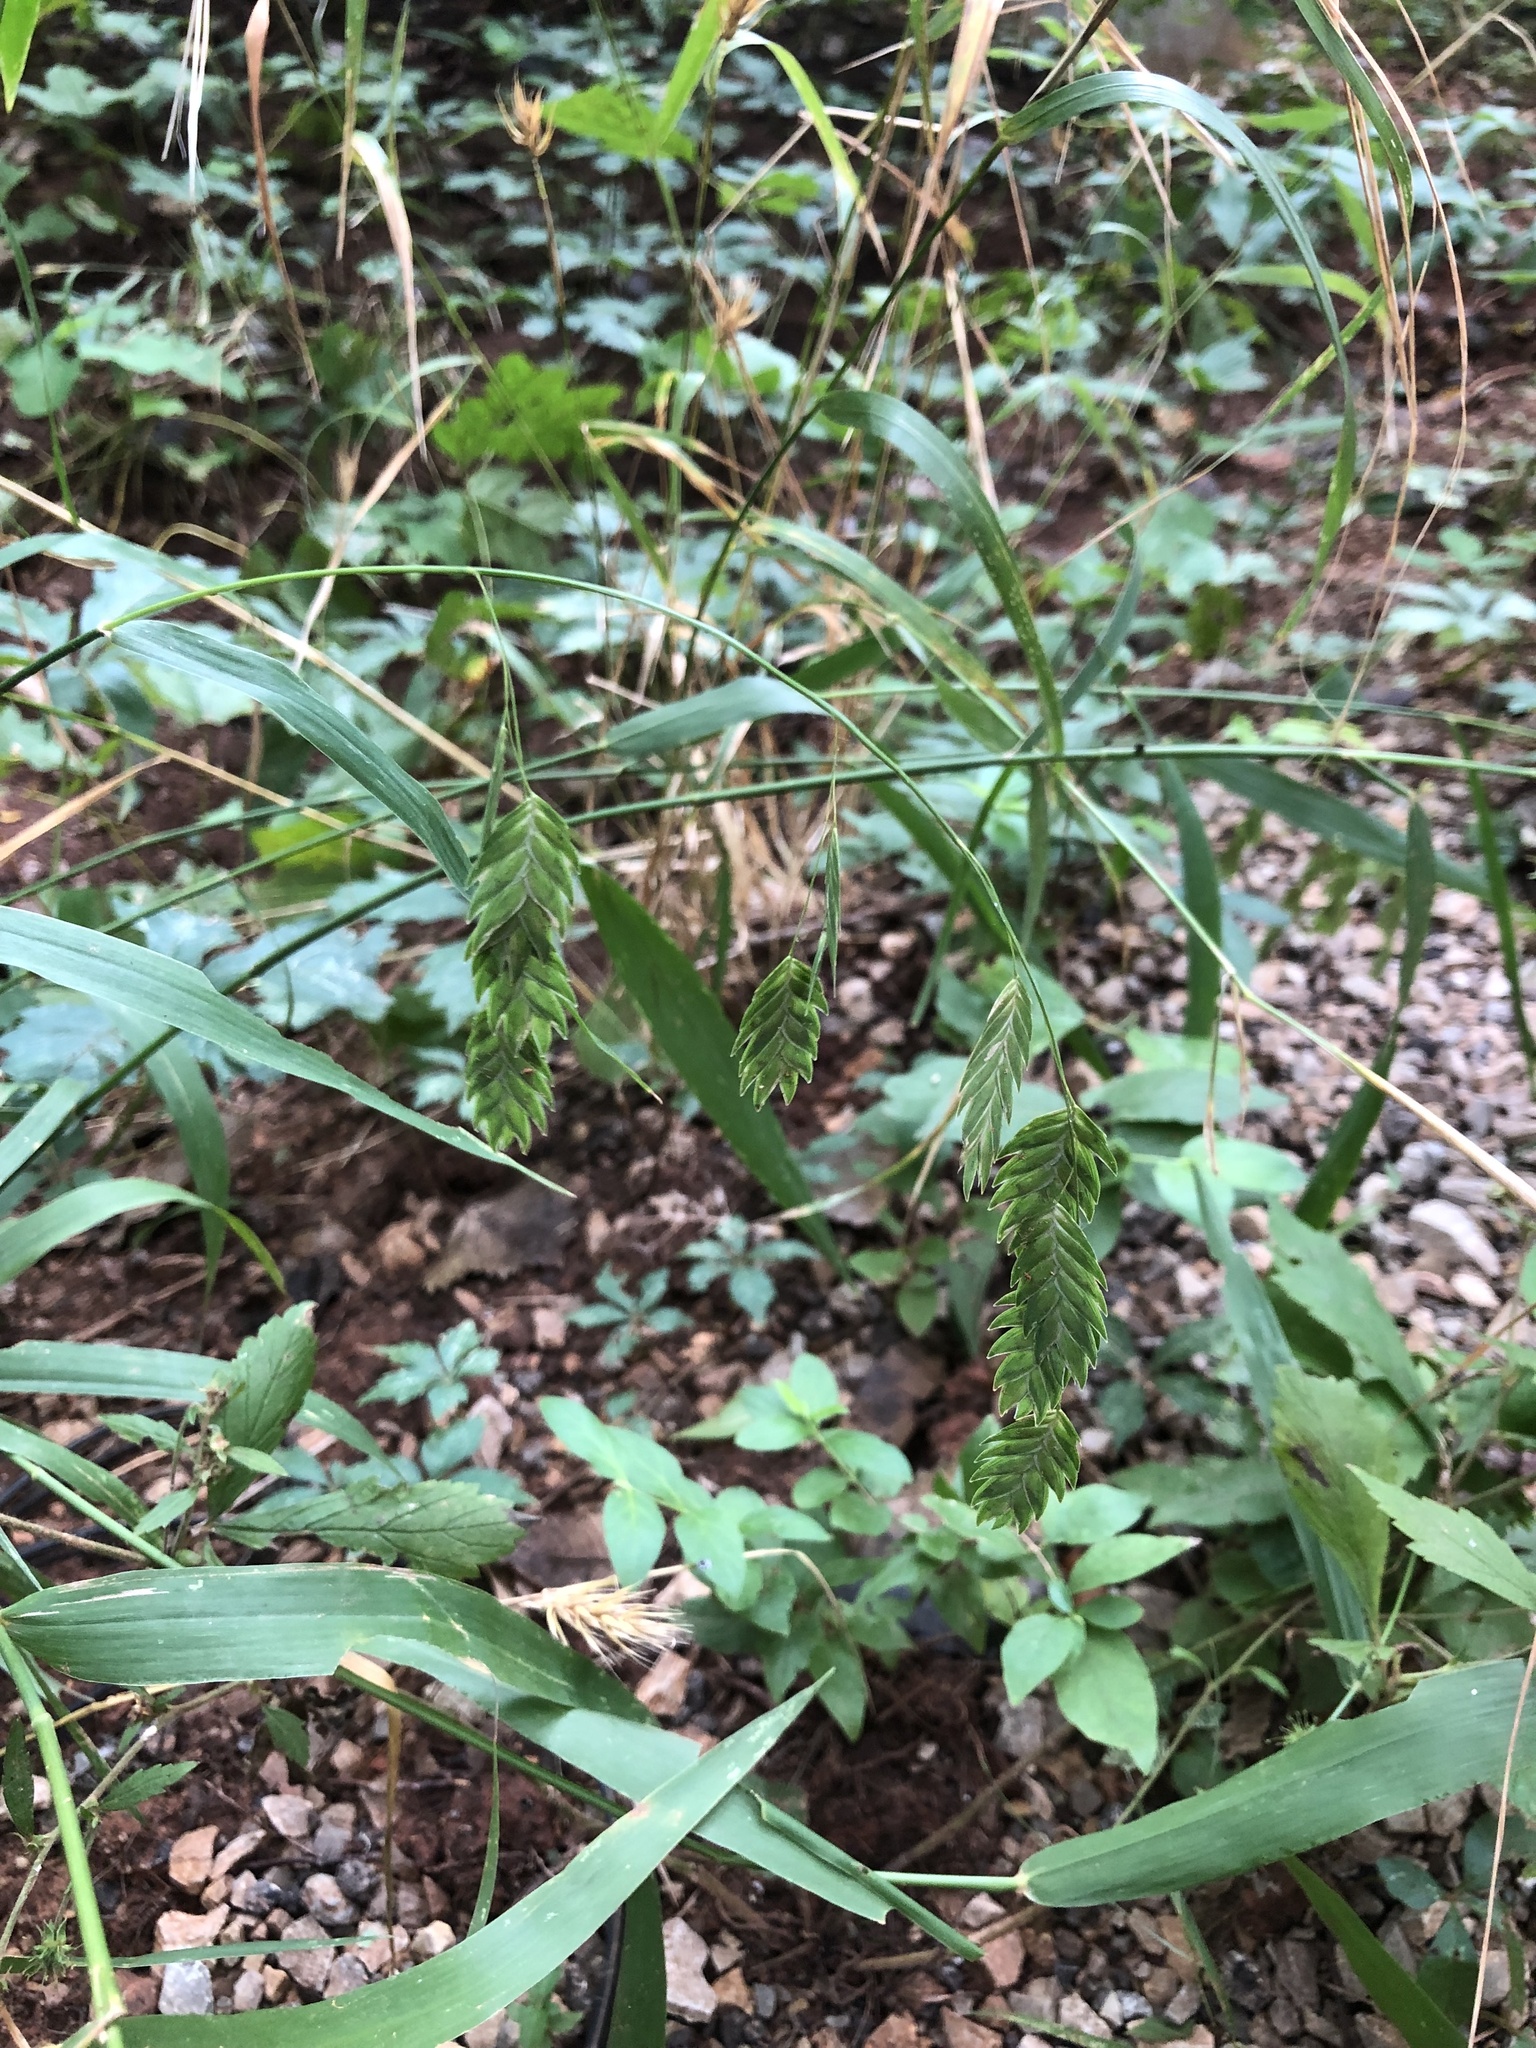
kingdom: Plantae
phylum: Tracheophyta
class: Liliopsida
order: Poales
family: Poaceae
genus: Chasmanthium
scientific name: Chasmanthium latifolium
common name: Broad-leaved chasmanthium
